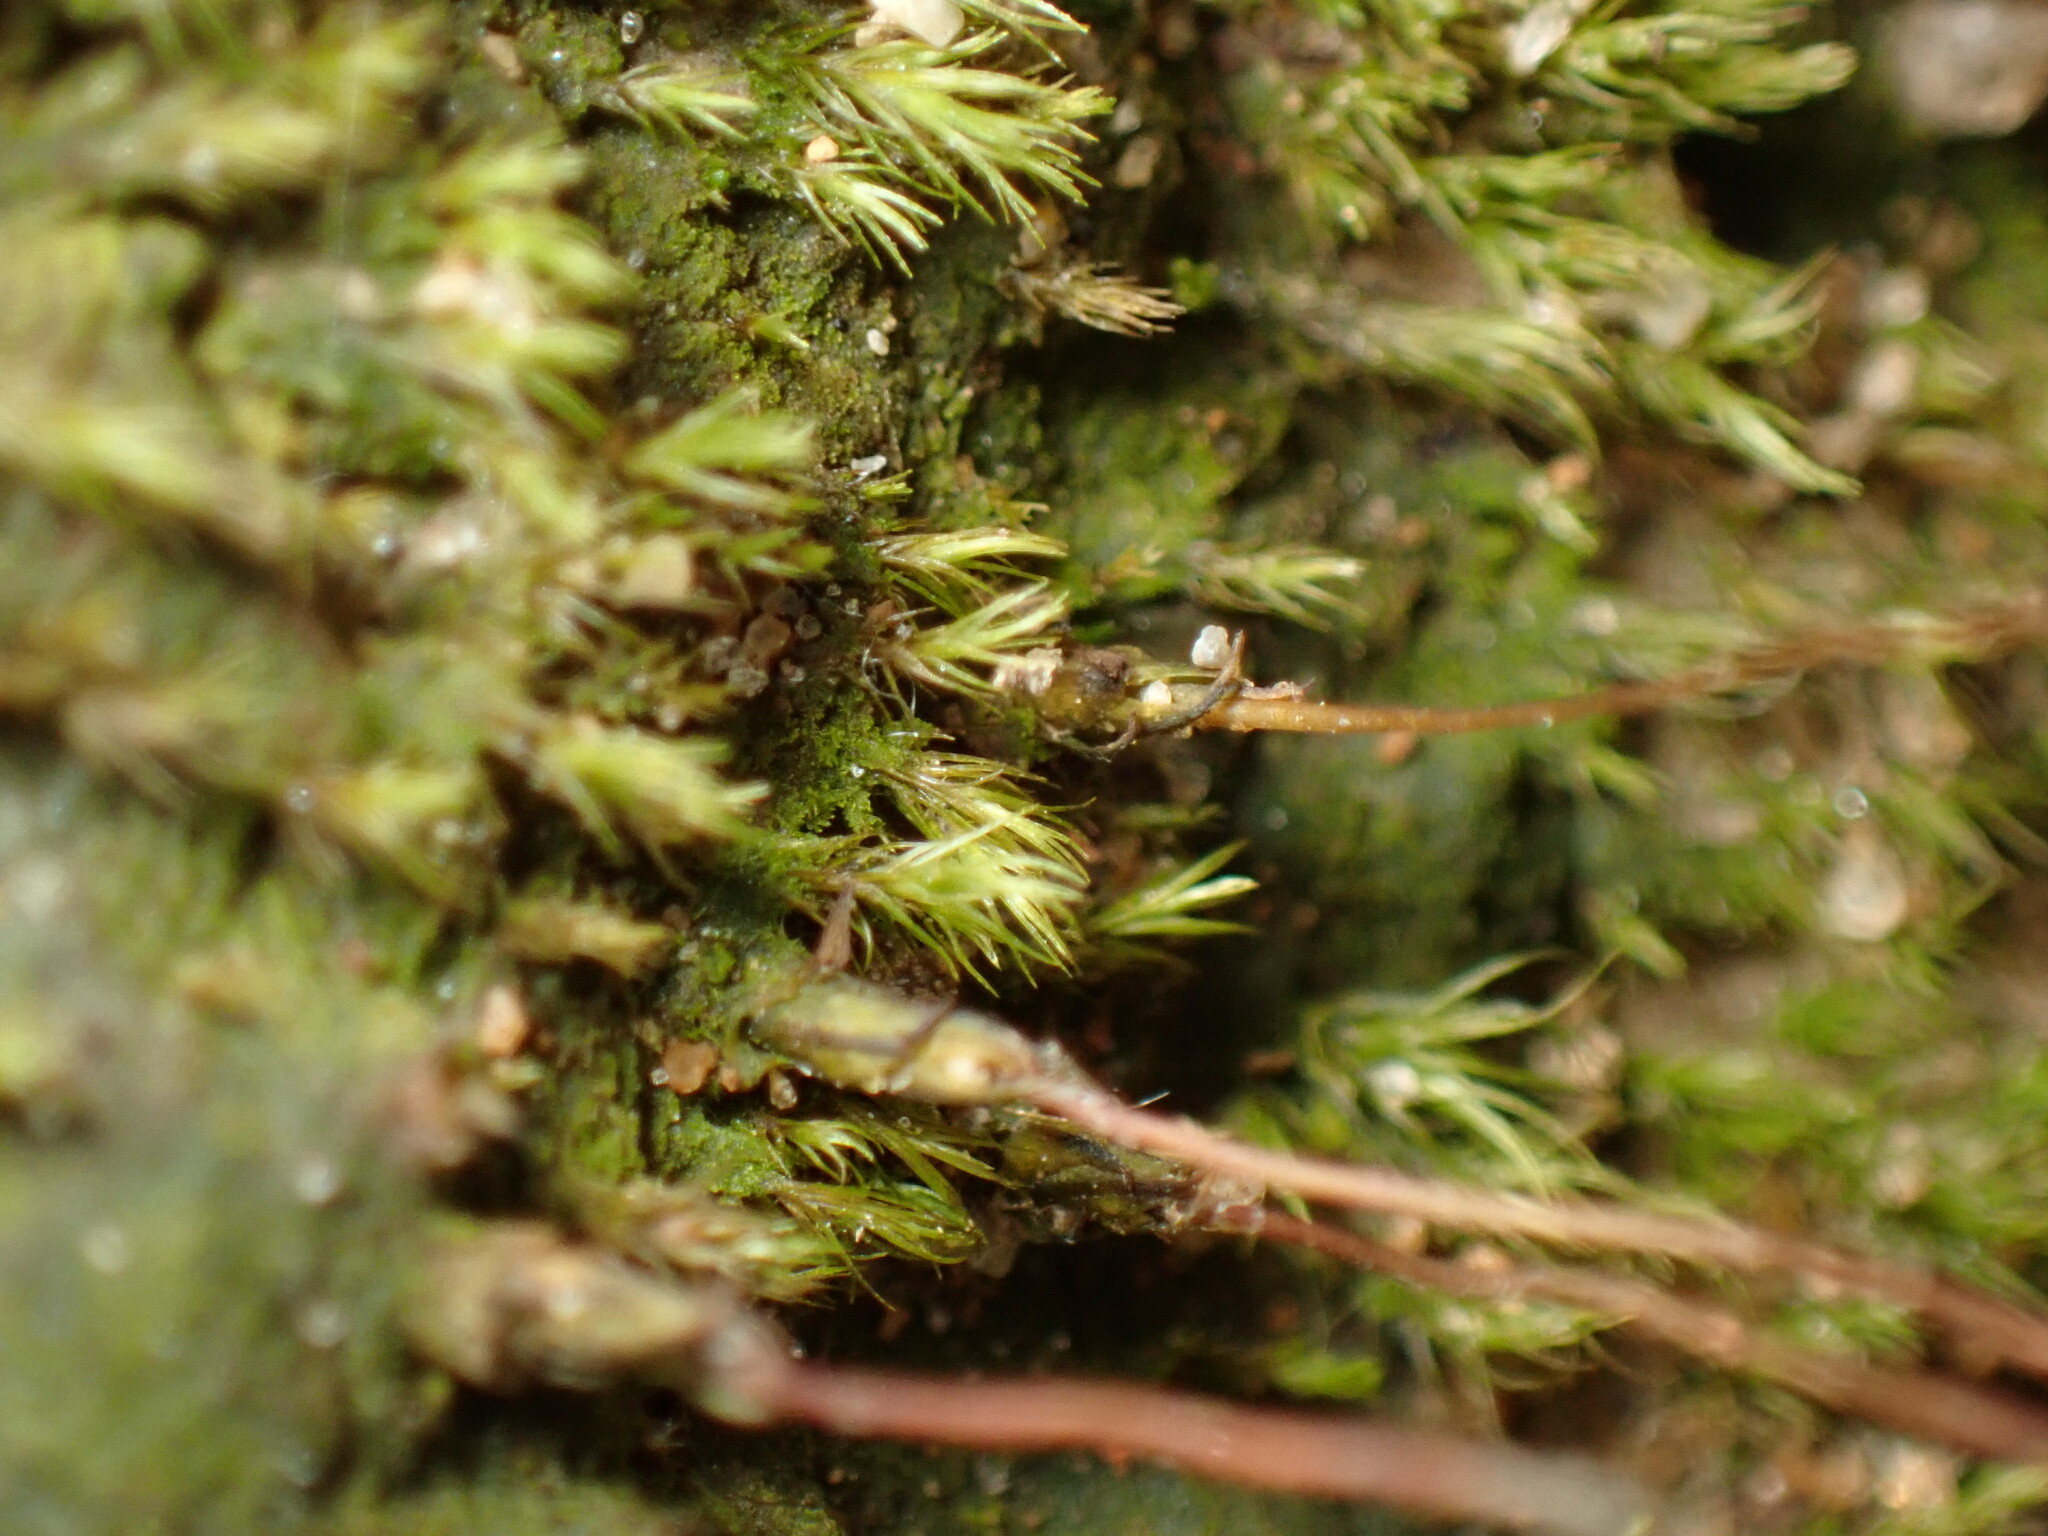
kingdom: Plantae
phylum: Bryophyta
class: Polytrichopsida
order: Polytrichales
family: Polytrichaceae
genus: Pogonatum
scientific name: Pogonatum pensilvanicum
